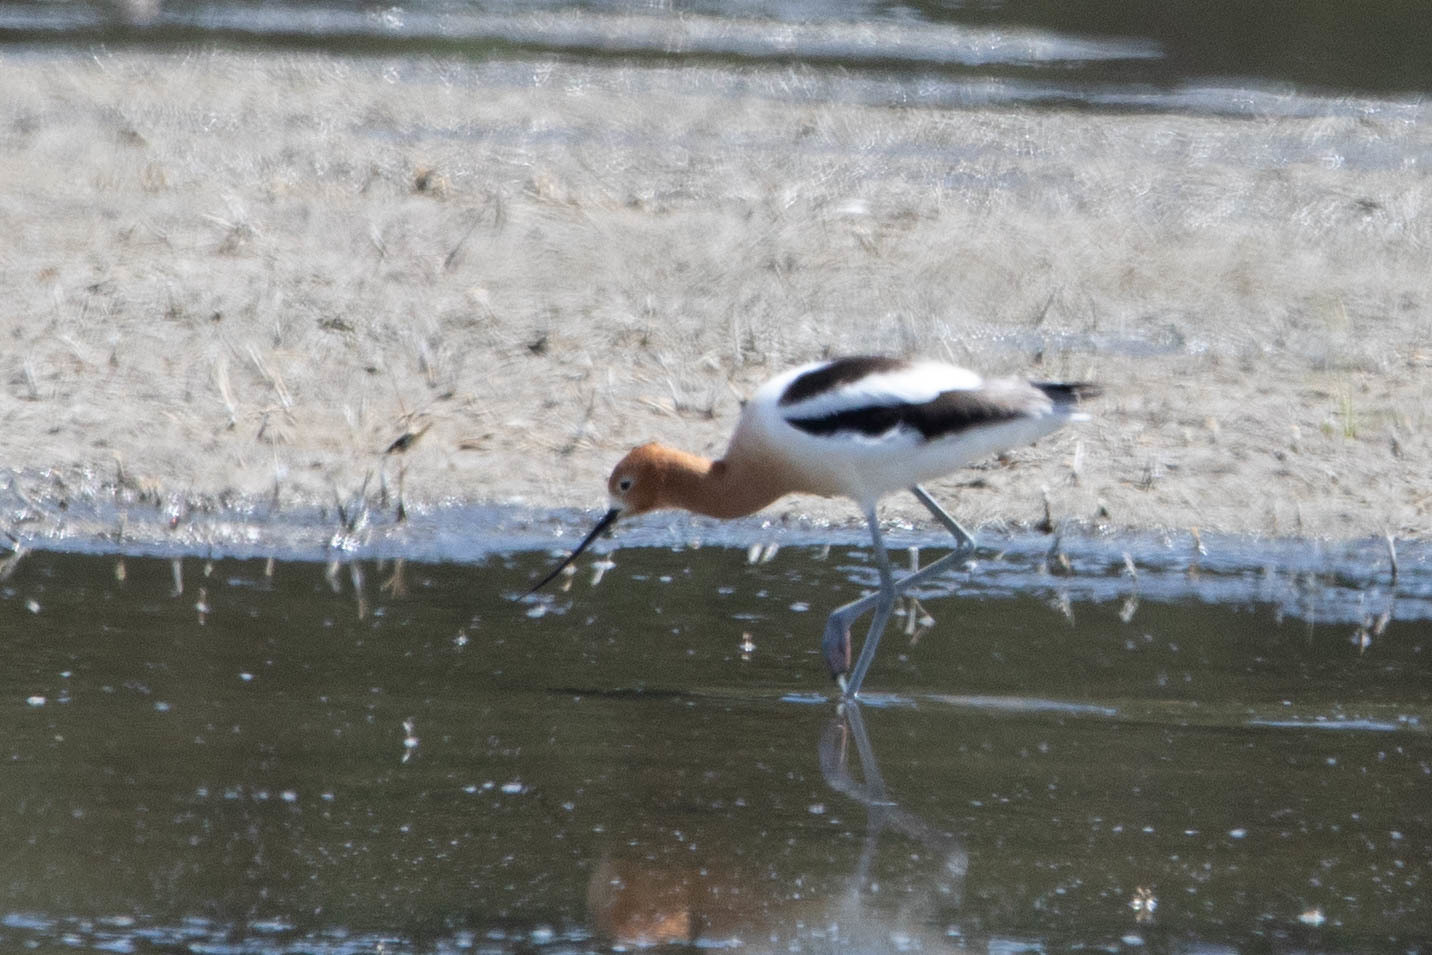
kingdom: Animalia
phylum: Chordata
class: Aves
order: Charadriiformes
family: Recurvirostridae
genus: Recurvirostra
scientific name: Recurvirostra americana
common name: American avocet
